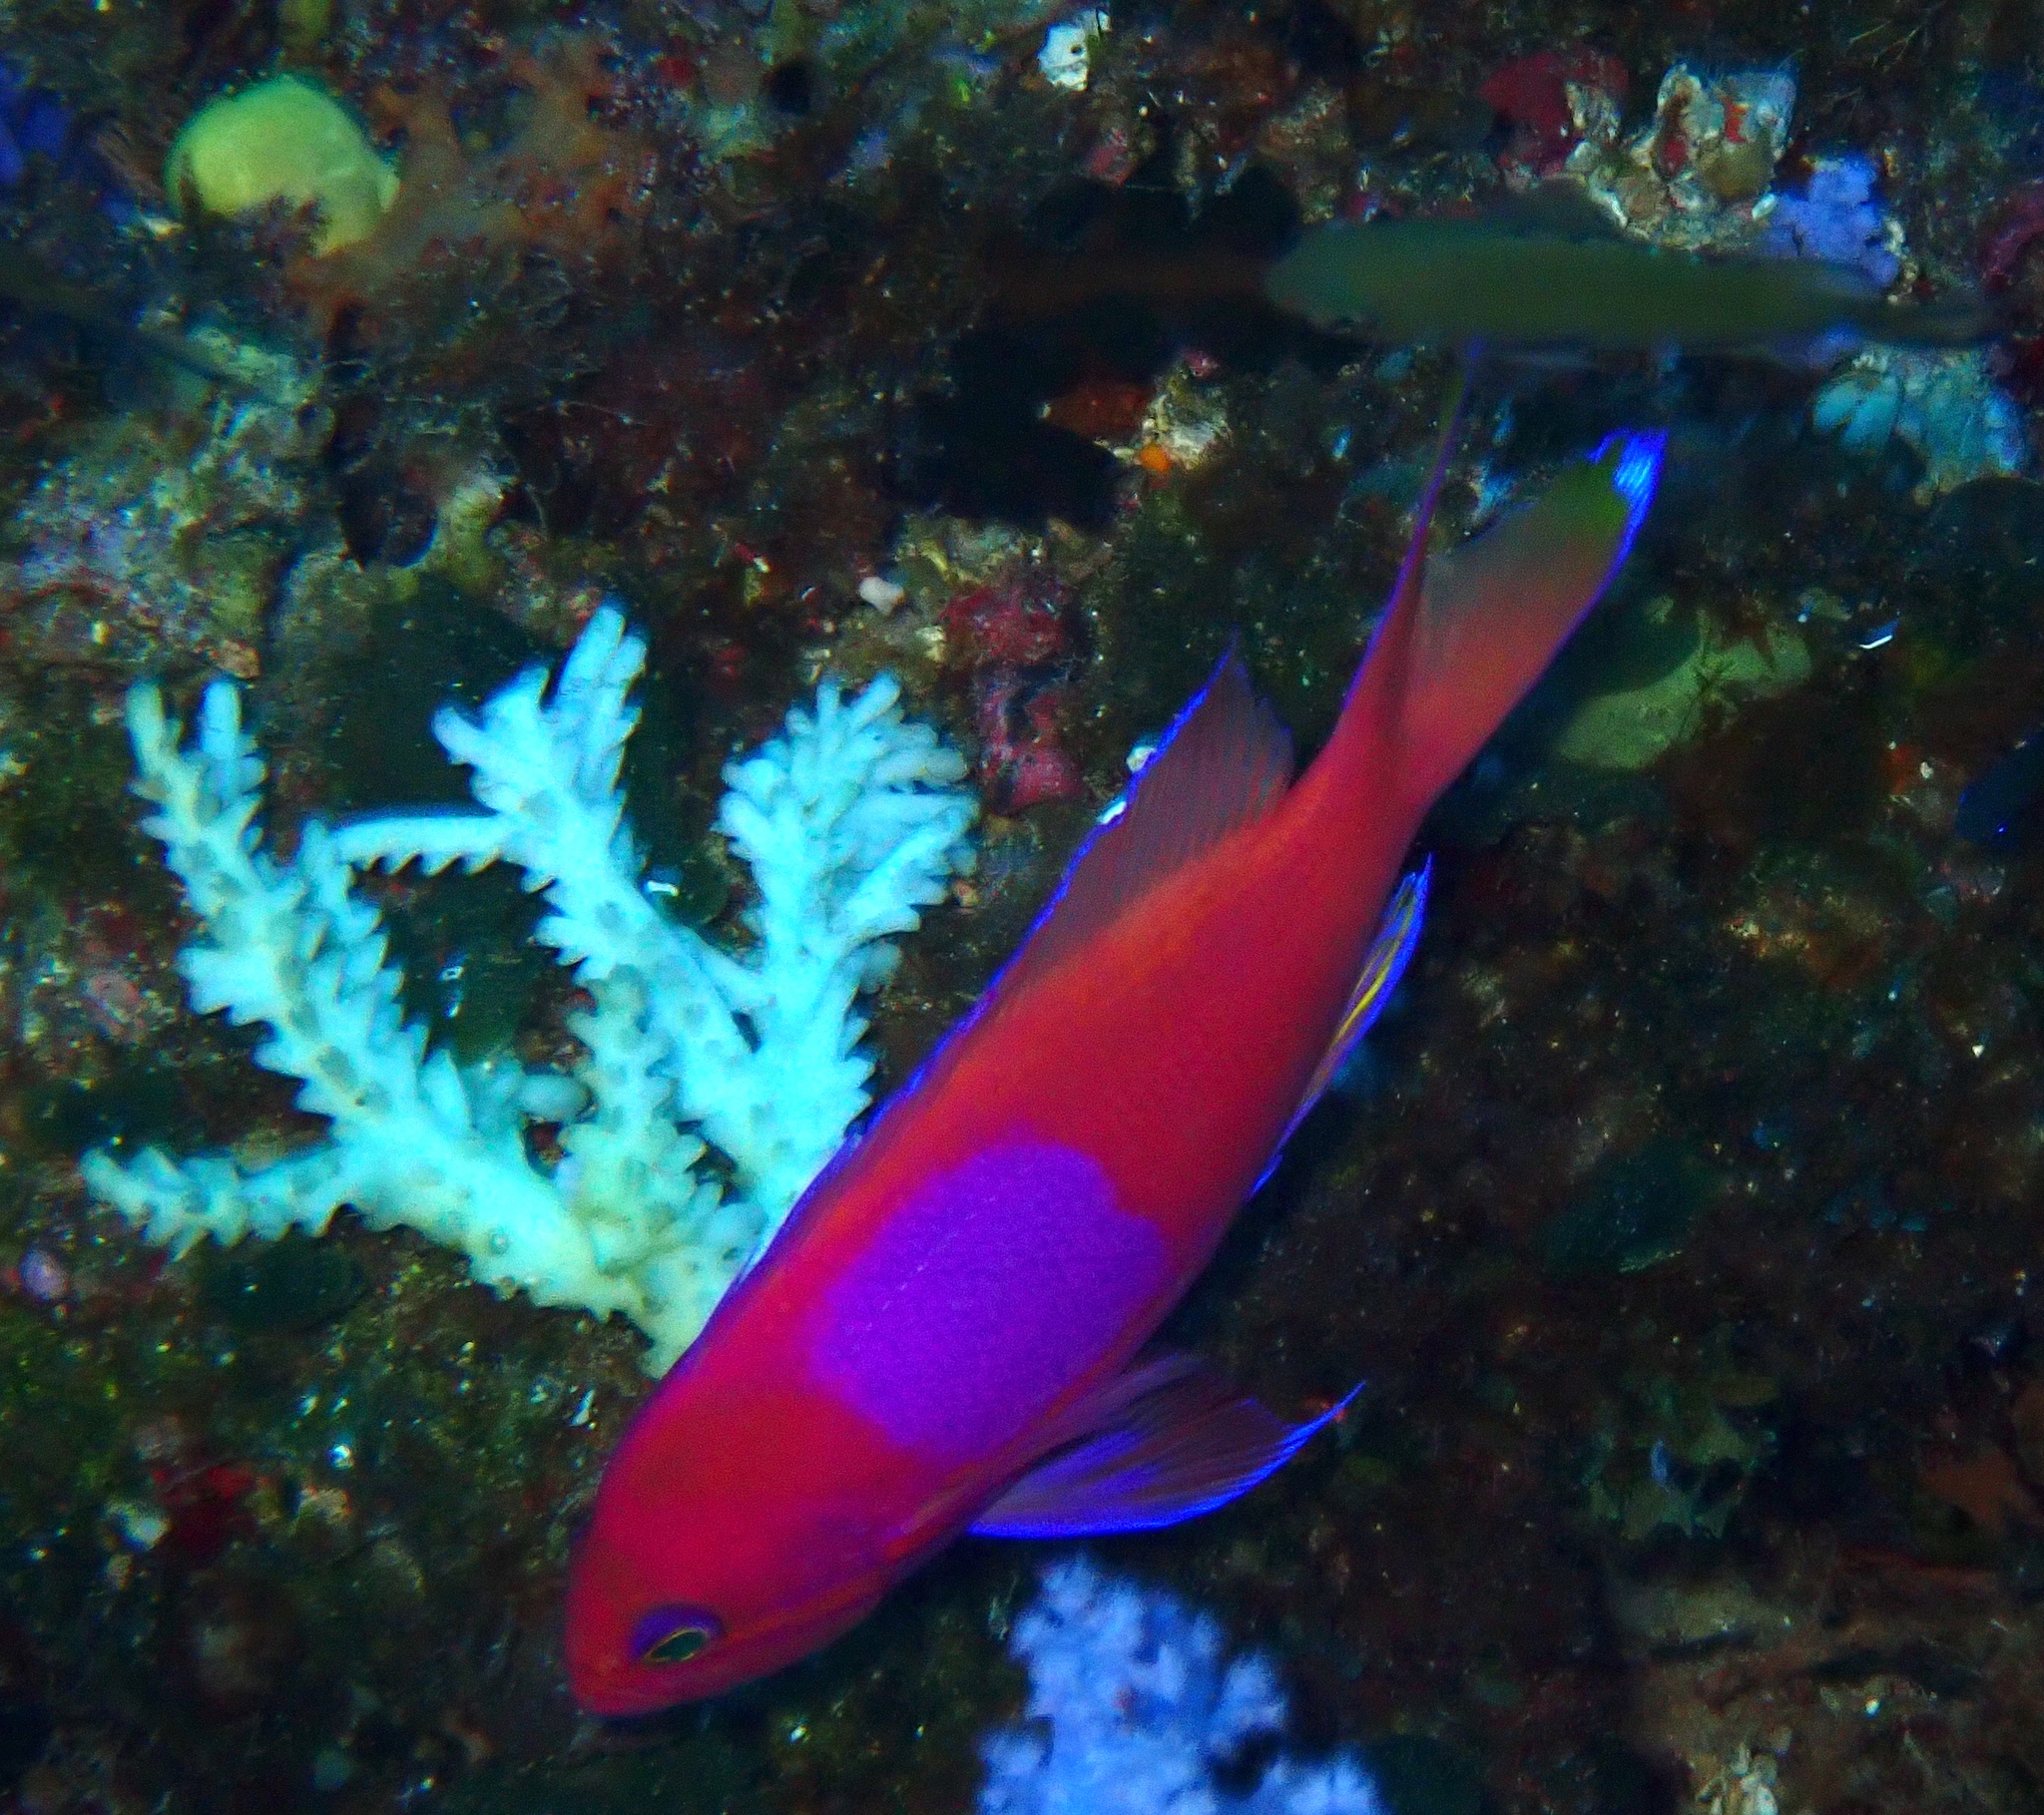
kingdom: Animalia
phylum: Chordata
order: Perciformes
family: Serranidae
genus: Pseudanthias
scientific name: Pseudanthias pleurotaenia
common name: Mirror basslet
